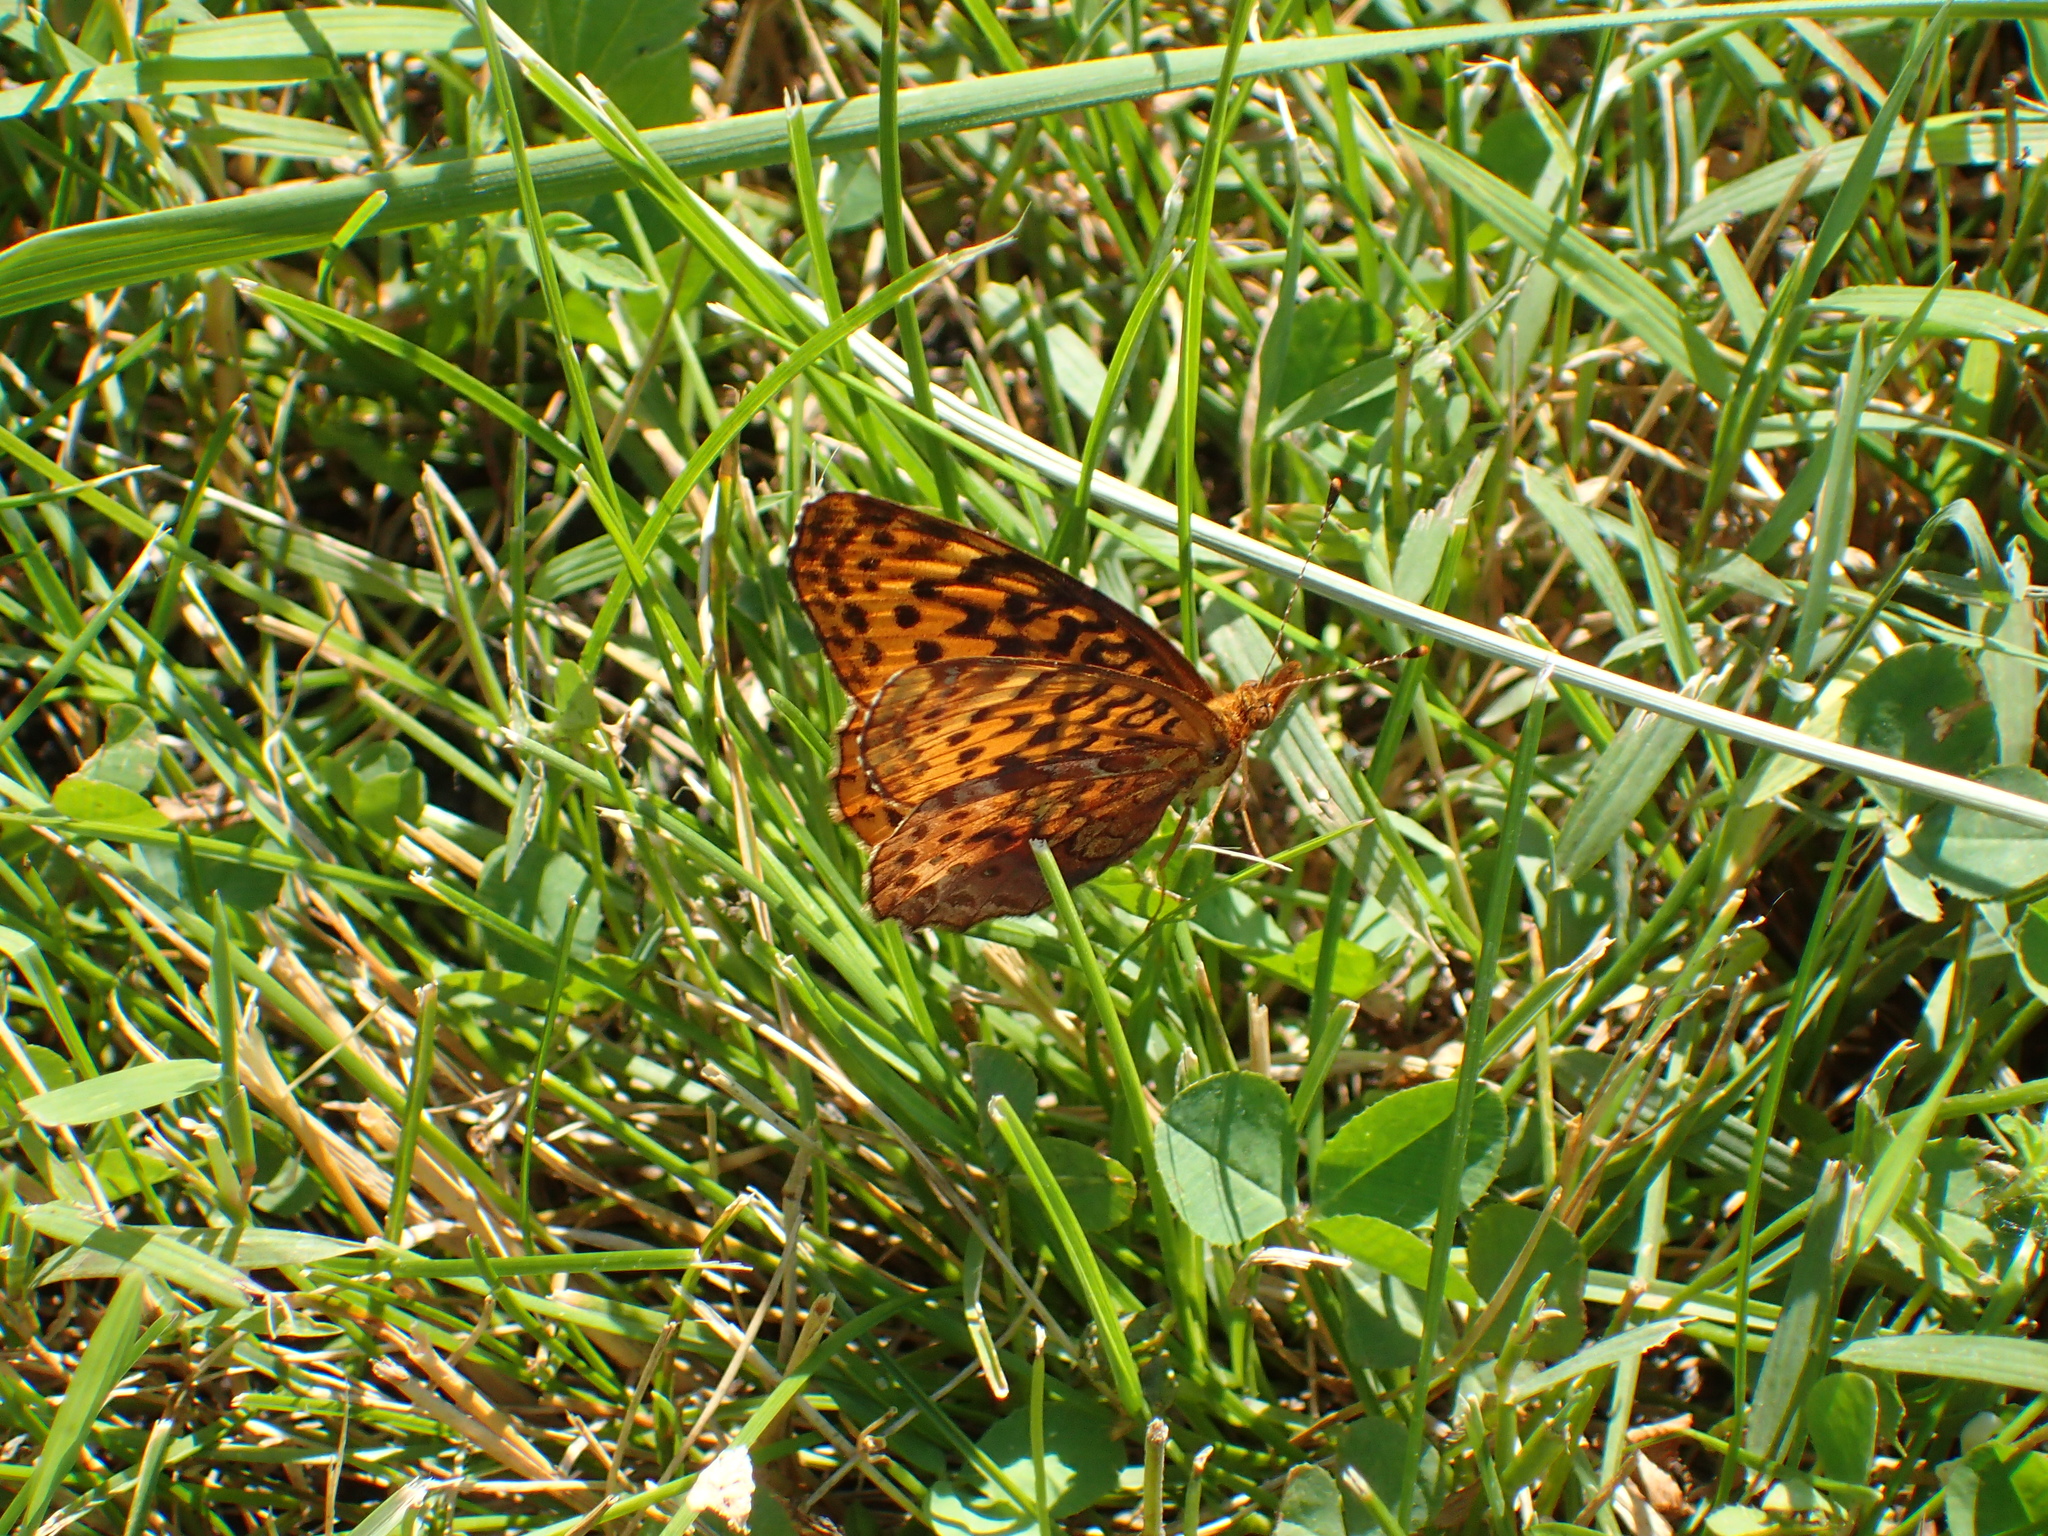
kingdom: Animalia
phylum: Arthropoda
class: Insecta
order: Lepidoptera
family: Nymphalidae
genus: Clossiana
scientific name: Clossiana toddi
